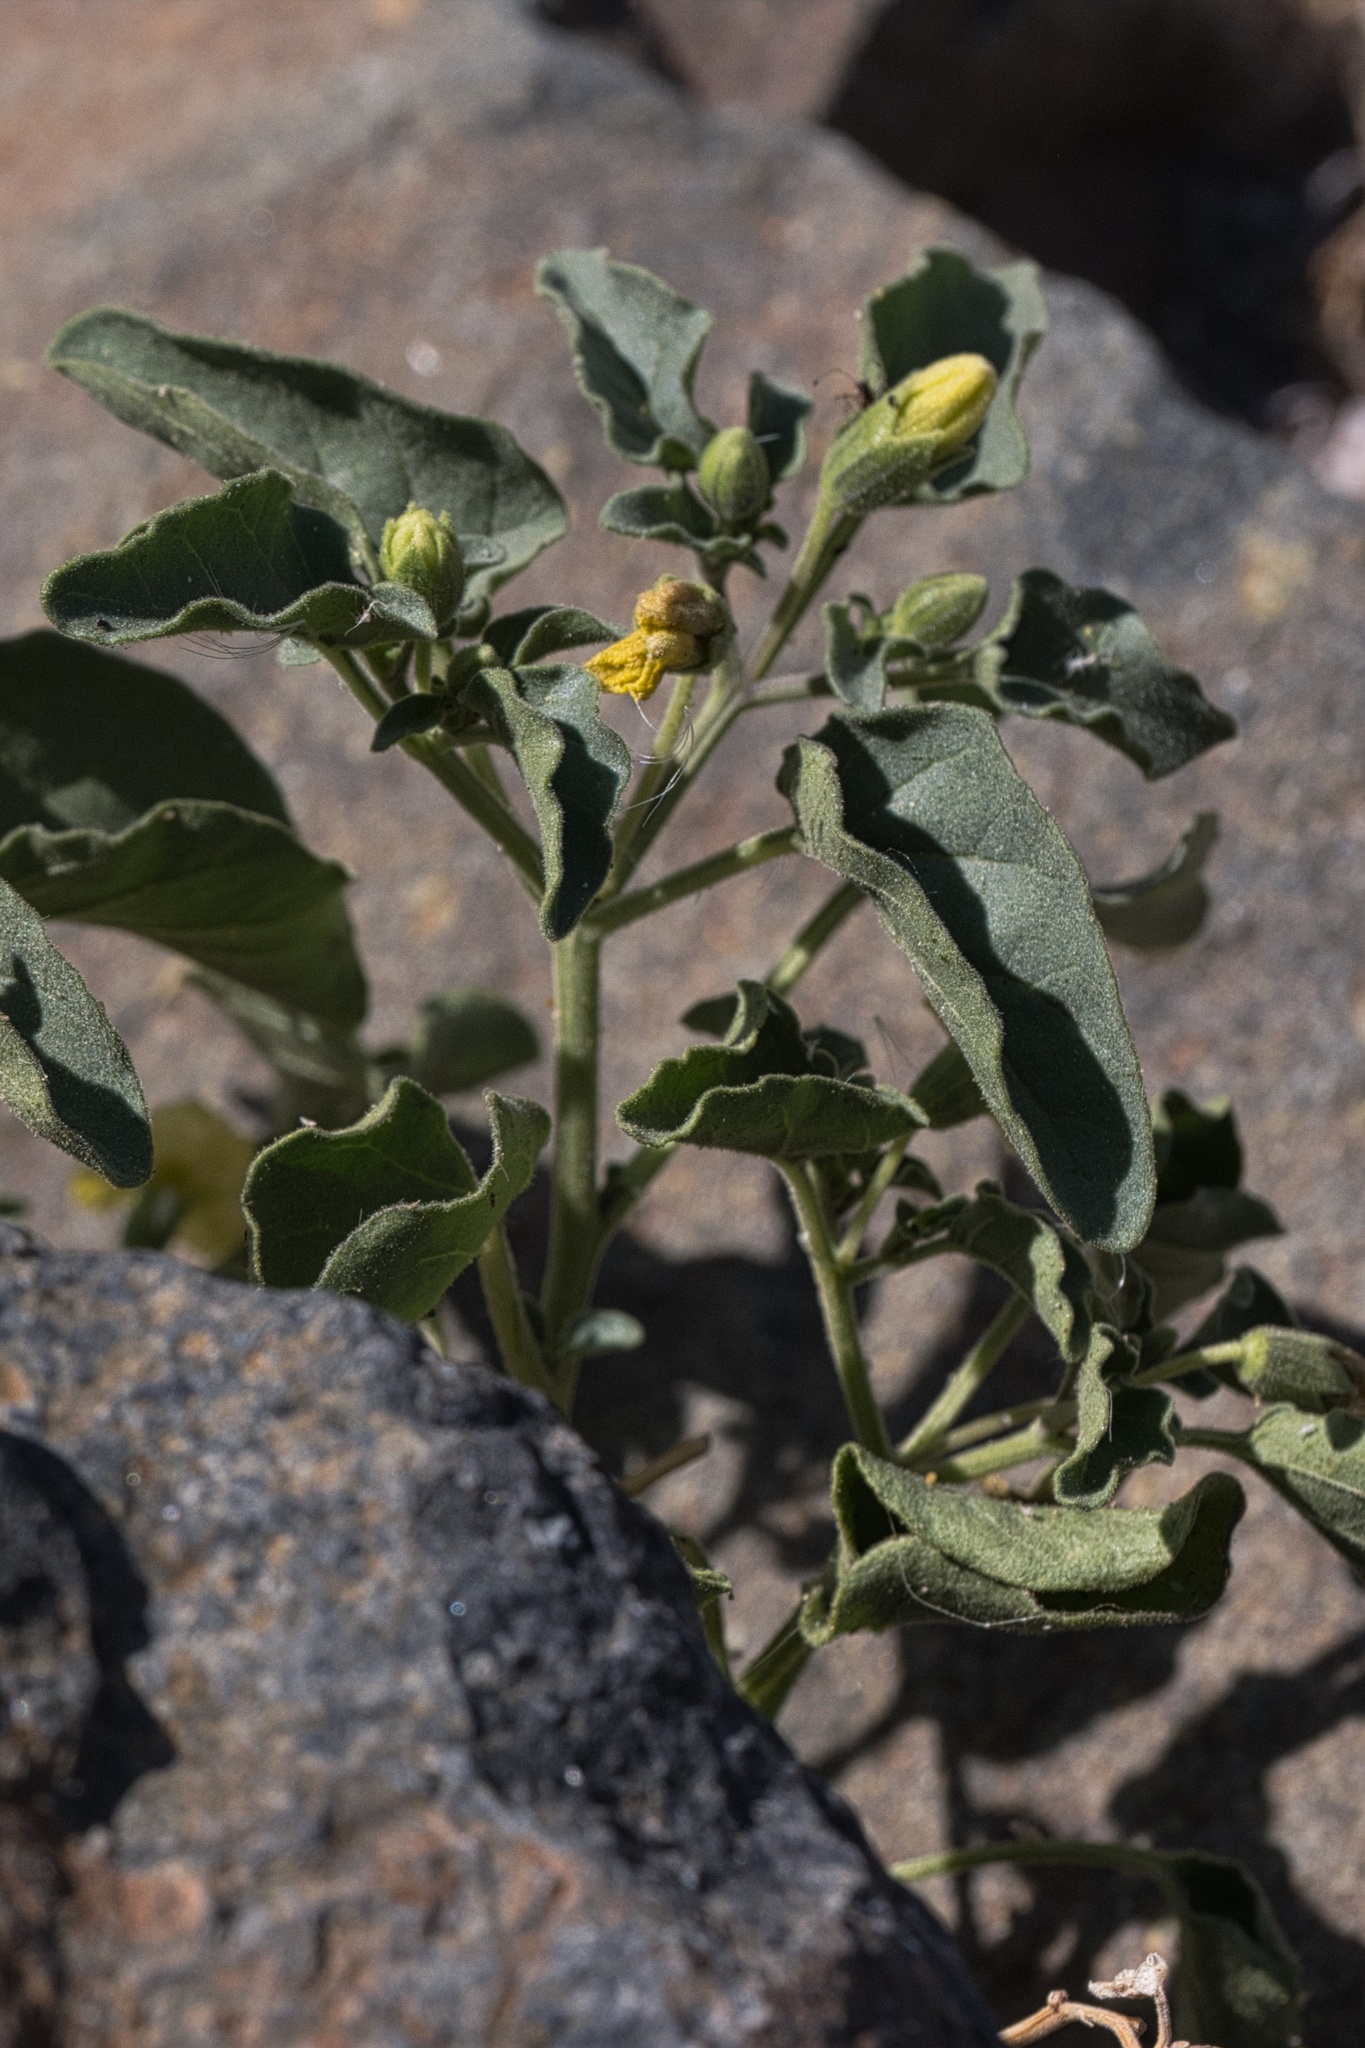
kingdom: Plantae
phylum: Tracheophyta
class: Magnoliopsida
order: Solanales
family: Solanaceae
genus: Physalis
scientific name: Physalis crassifolia
